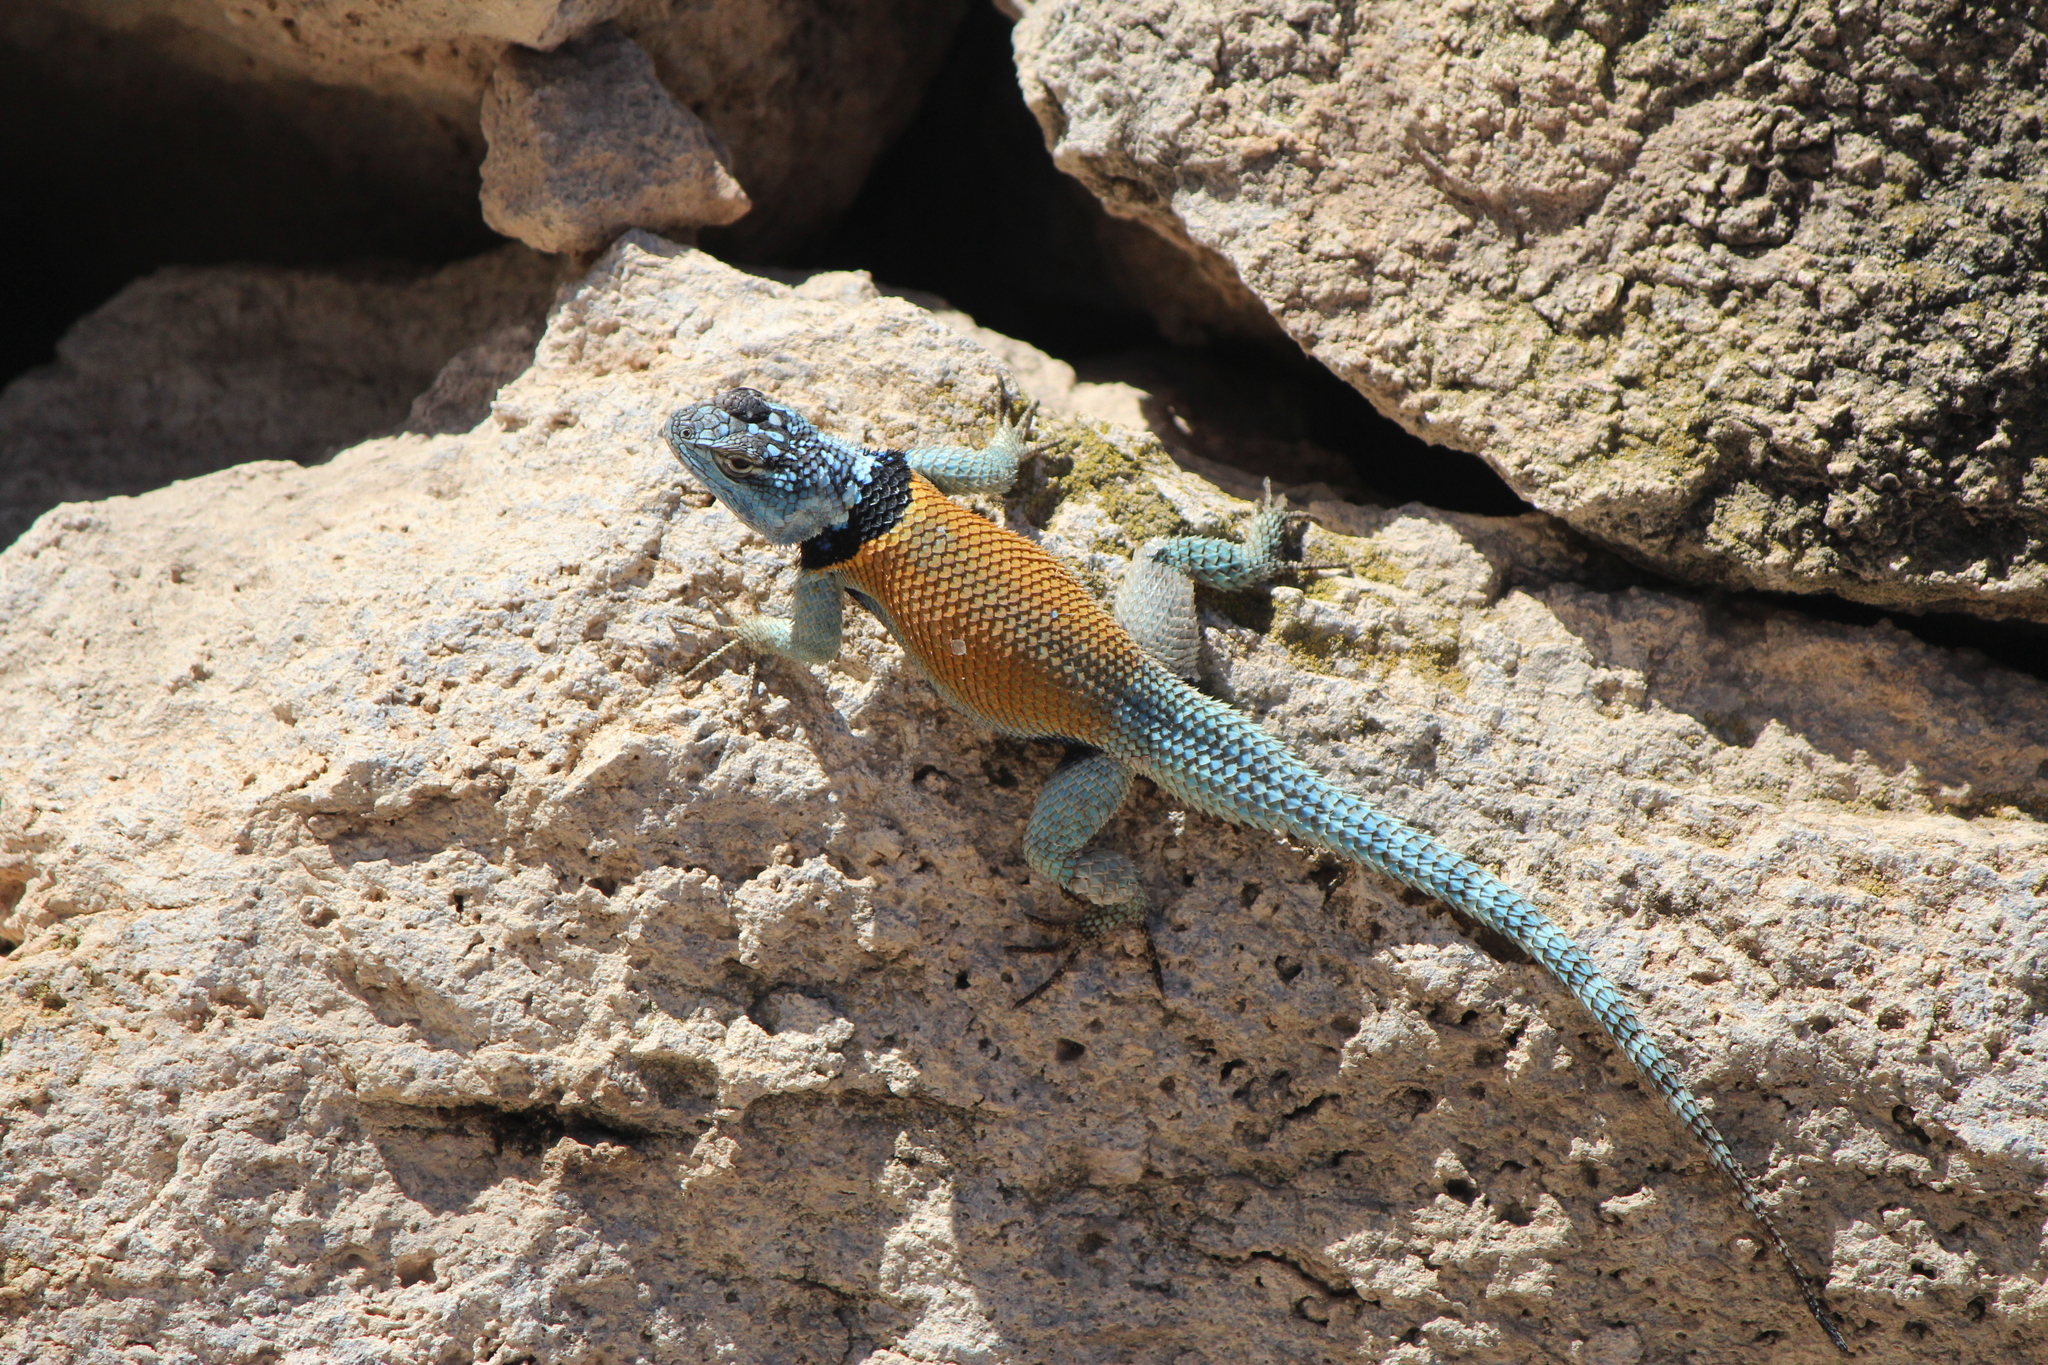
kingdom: Animalia
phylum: Chordata
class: Squamata
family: Phrynosomatidae
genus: Sceloporus
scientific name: Sceloporus minor
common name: Minor lizard
